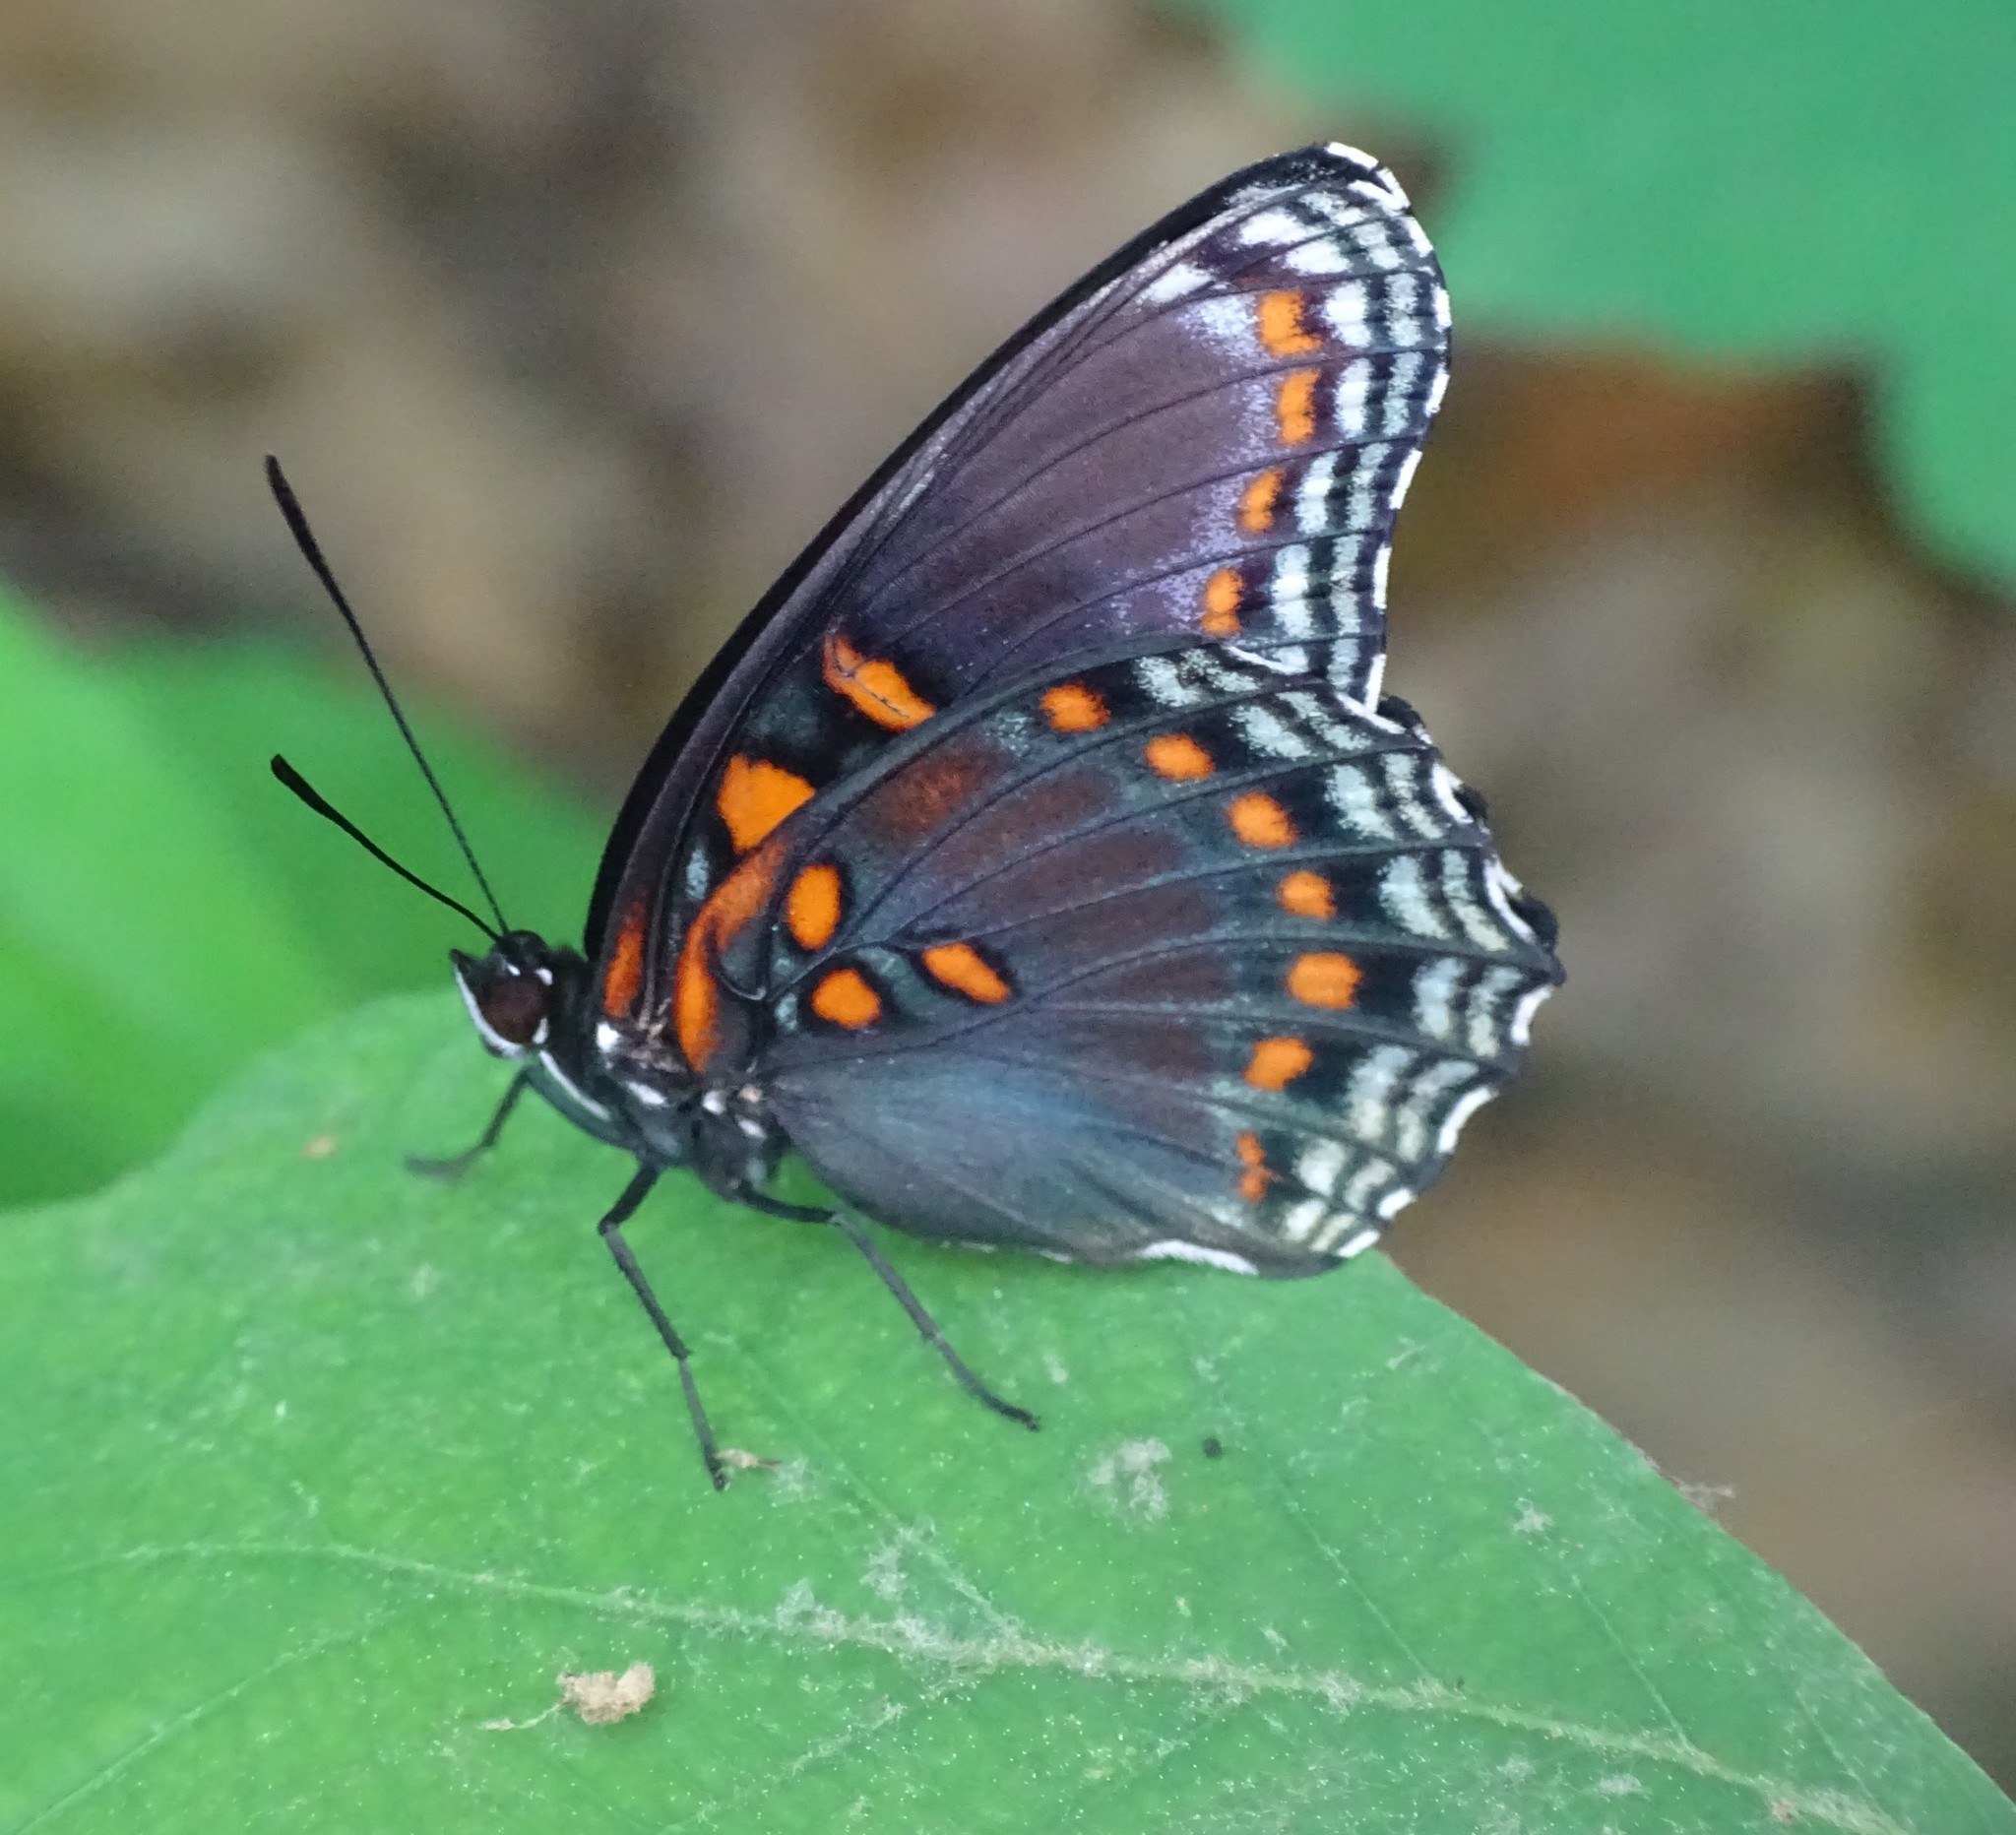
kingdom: Animalia
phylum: Arthropoda
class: Insecta
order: Lepidoptera
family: Nymphalidae
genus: Limenitis
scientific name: Limenitis astyanax
